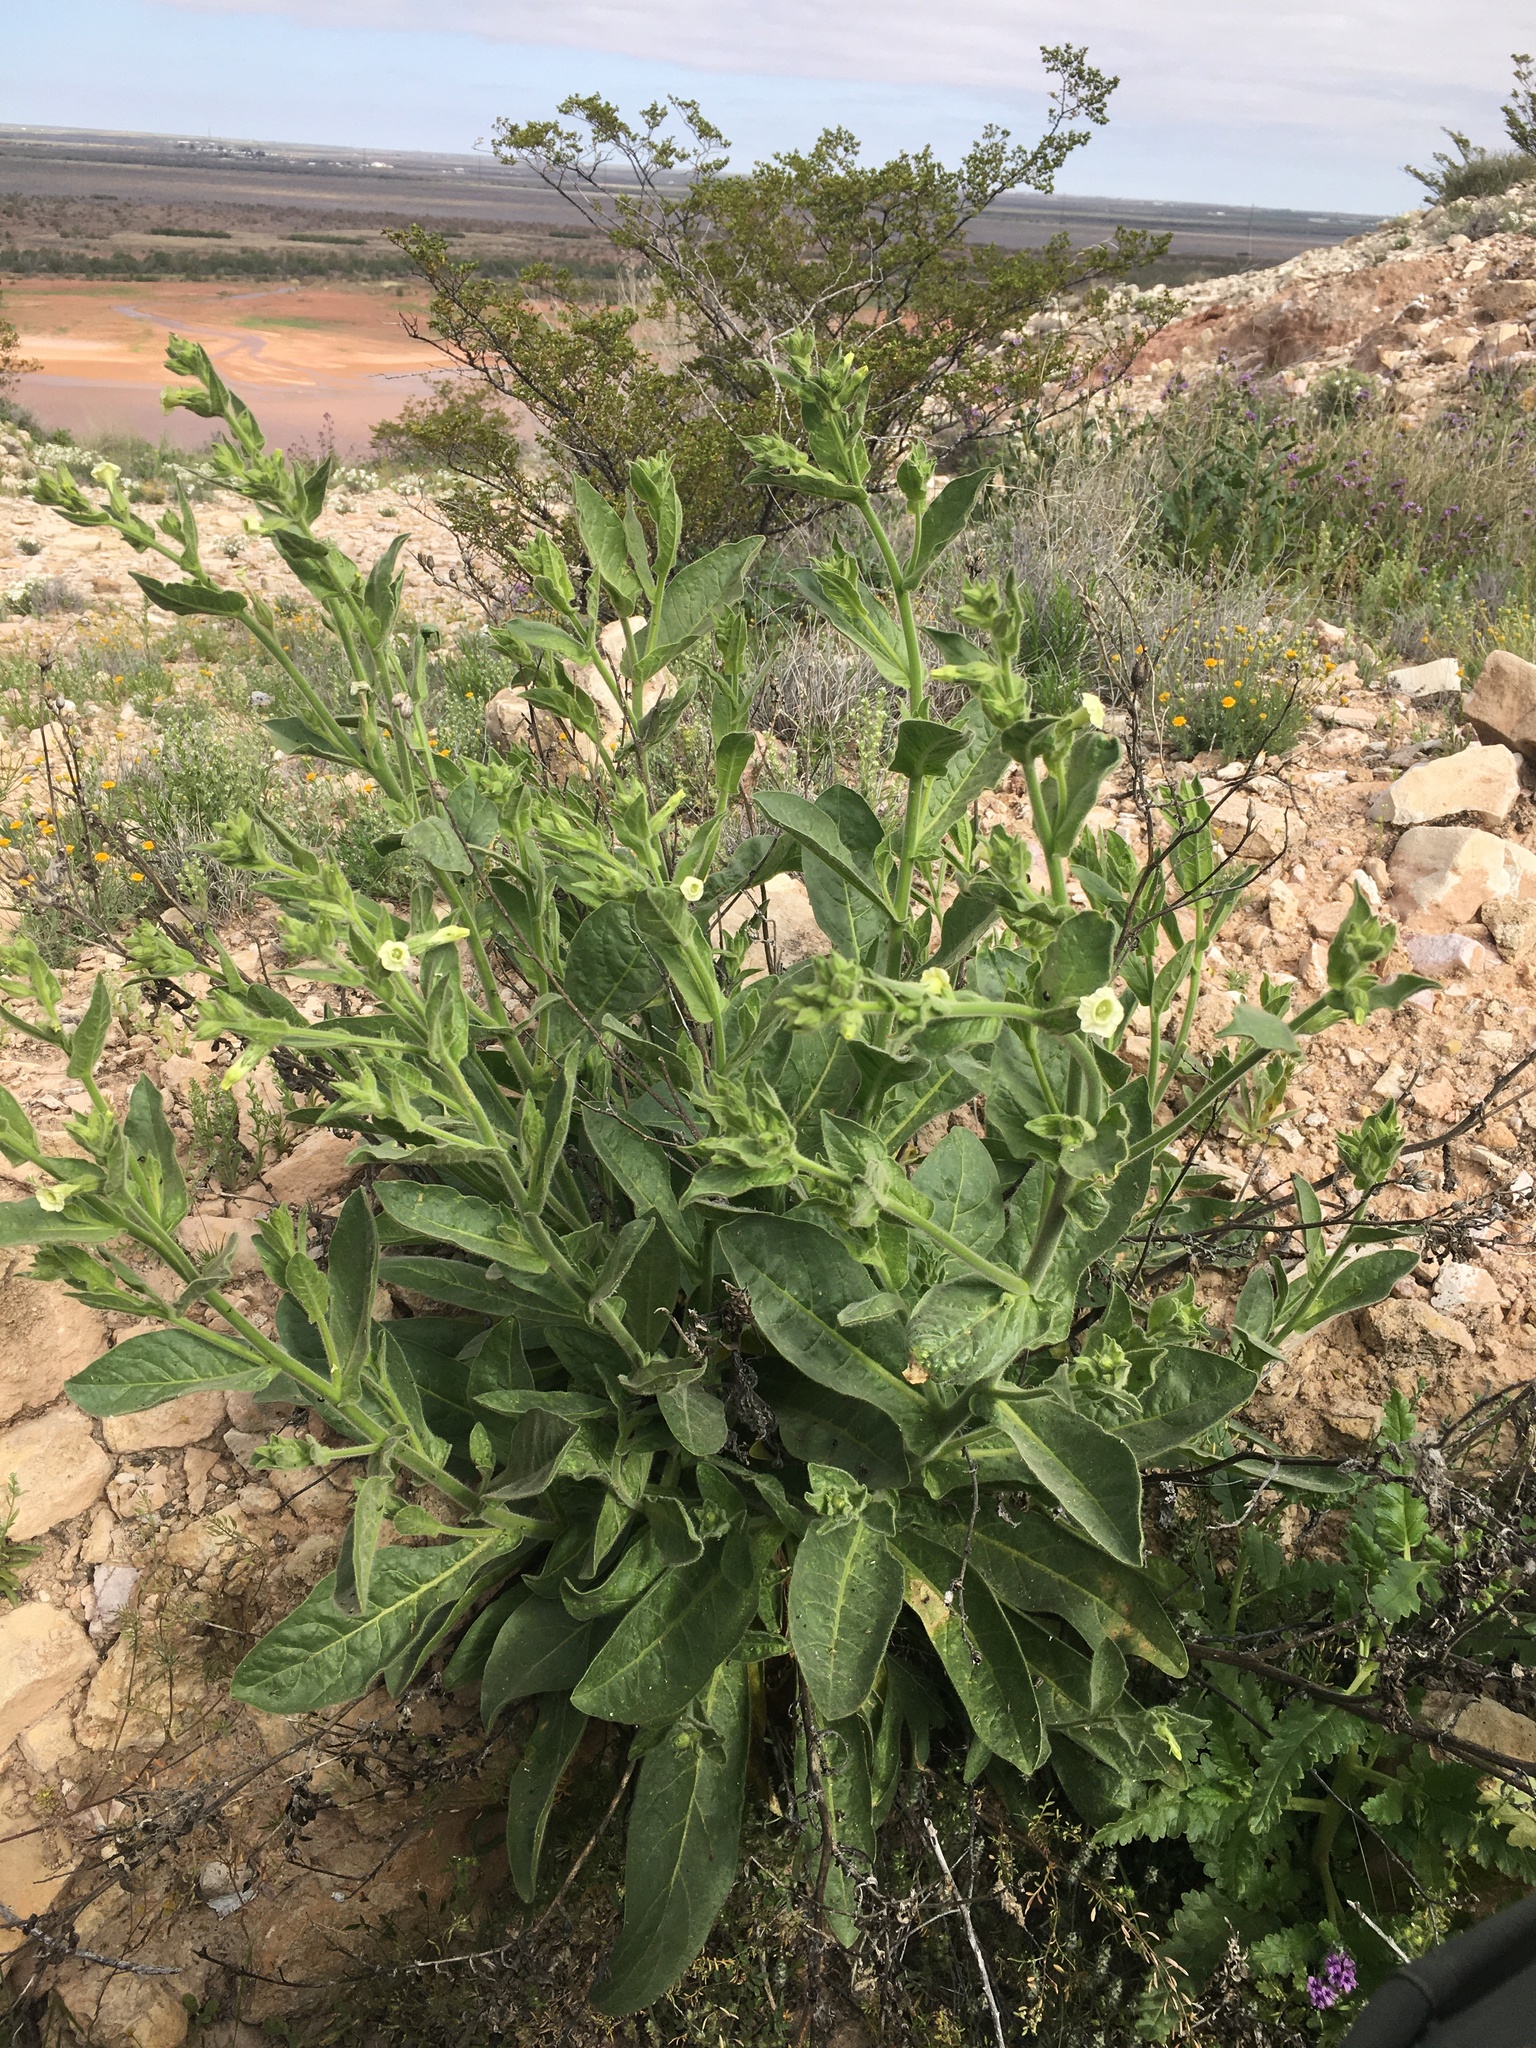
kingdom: Plantae
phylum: Tracheophyta
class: Magnoliopsida
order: Solanales
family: Solanaceae
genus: Nicotiana
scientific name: Nicotiana obtusifolia
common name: Desert tobacco
